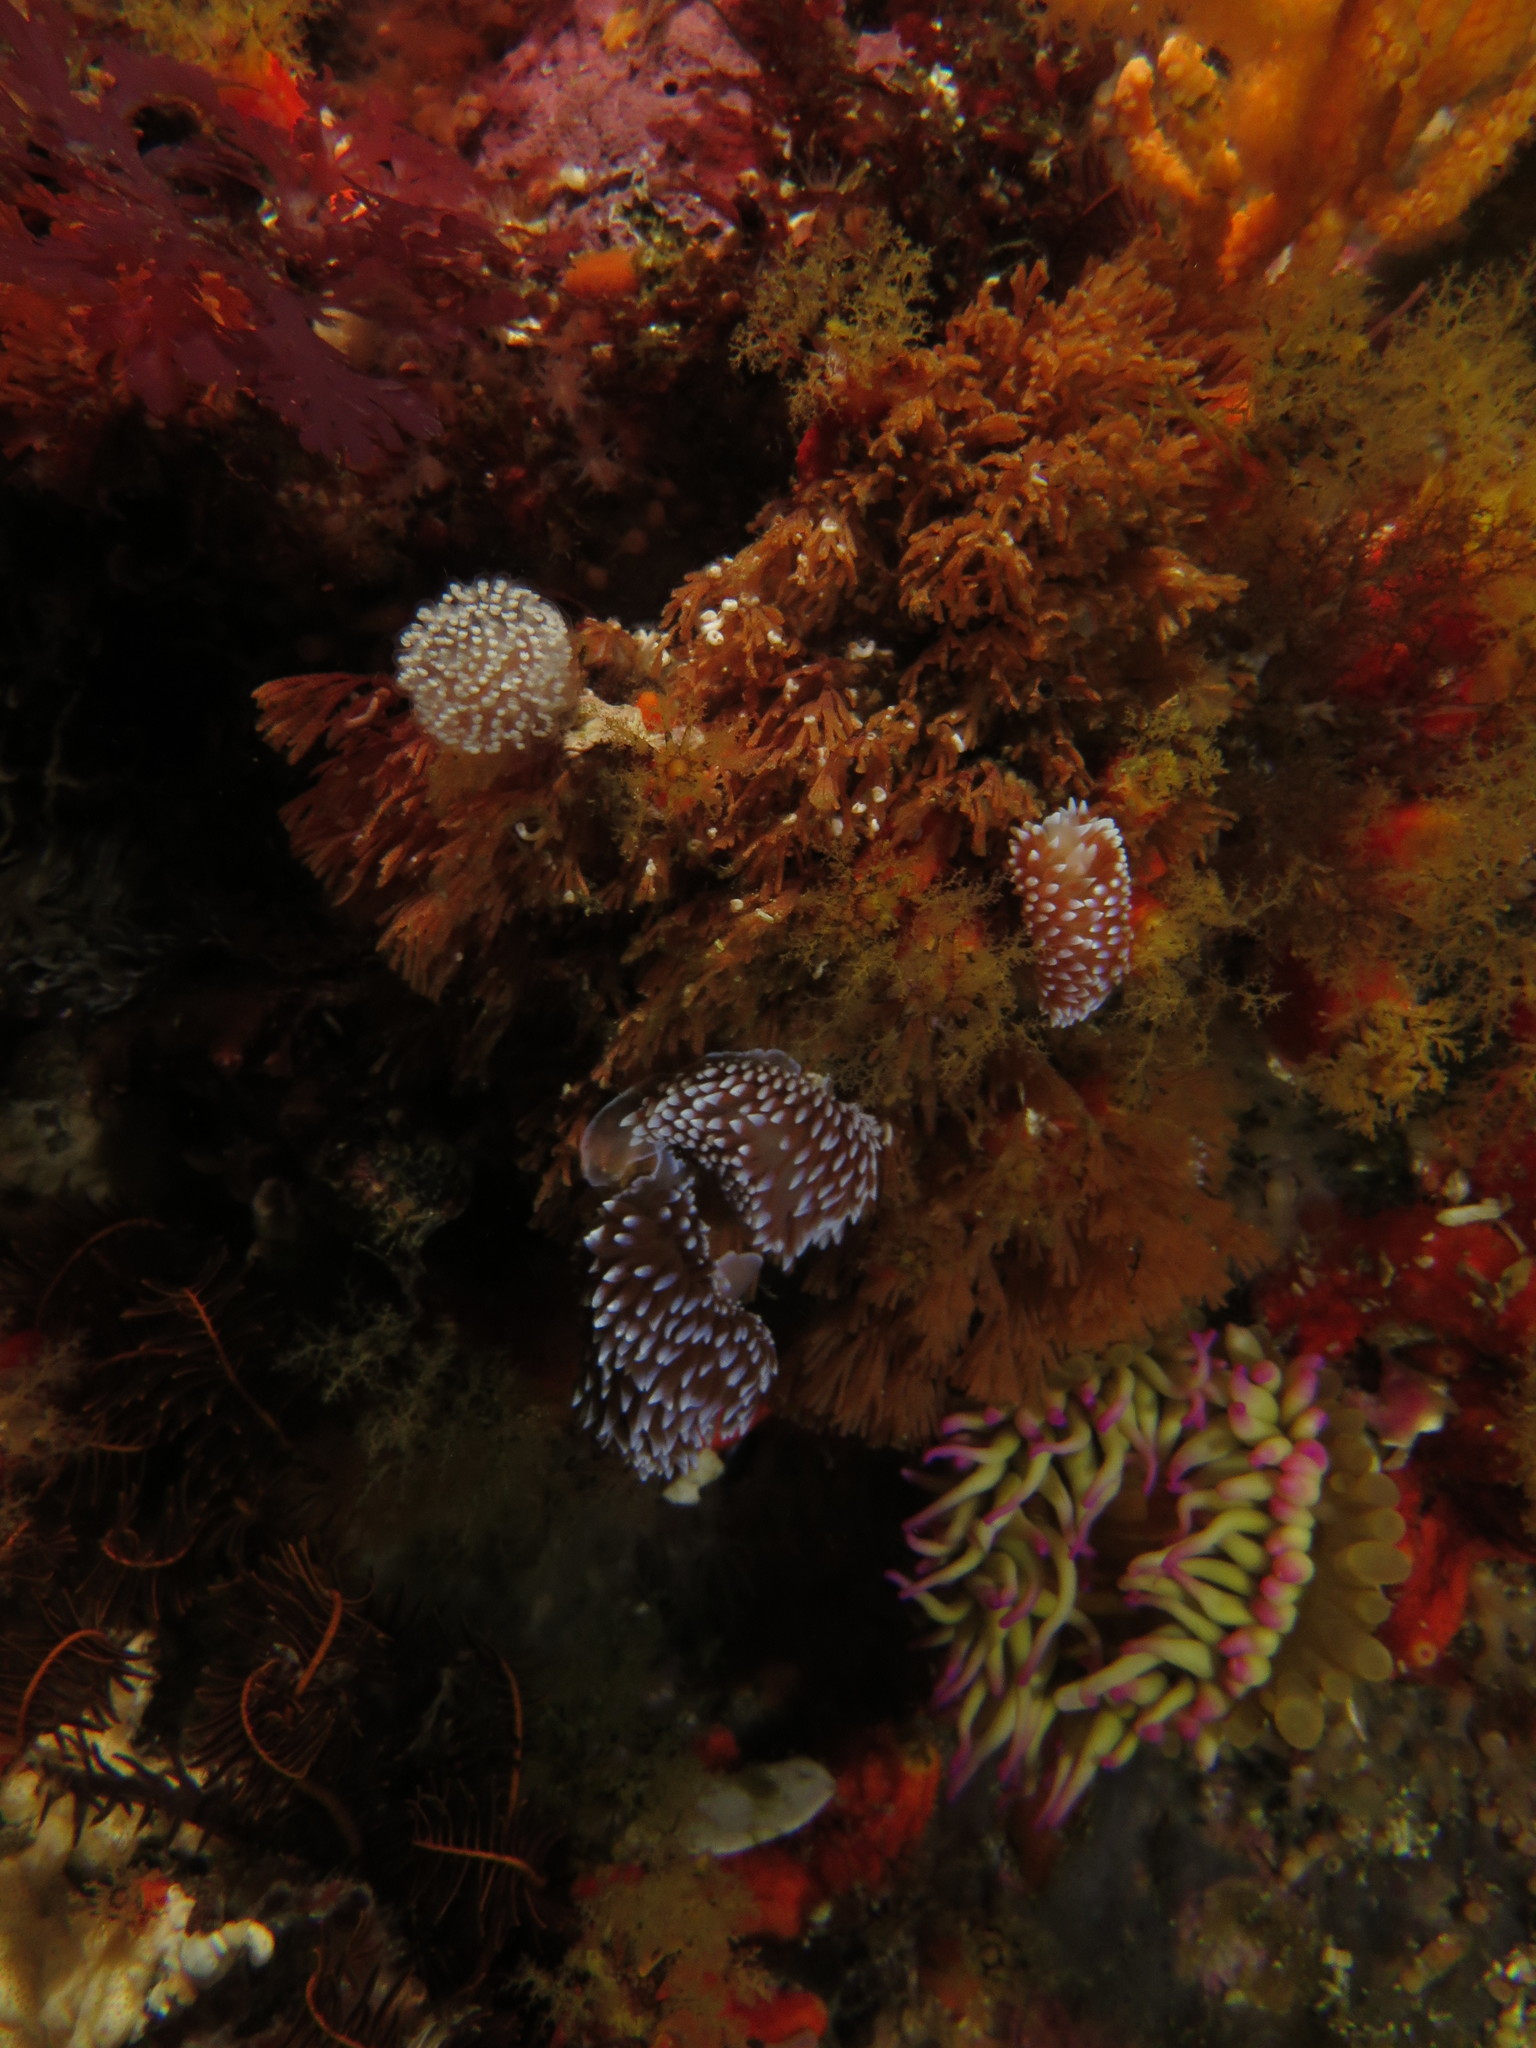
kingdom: Animalia
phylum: Mollusca
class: Gastropoda
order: Nudibranchia
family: Janolidae
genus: Antiopella
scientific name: Antiopella capensis
